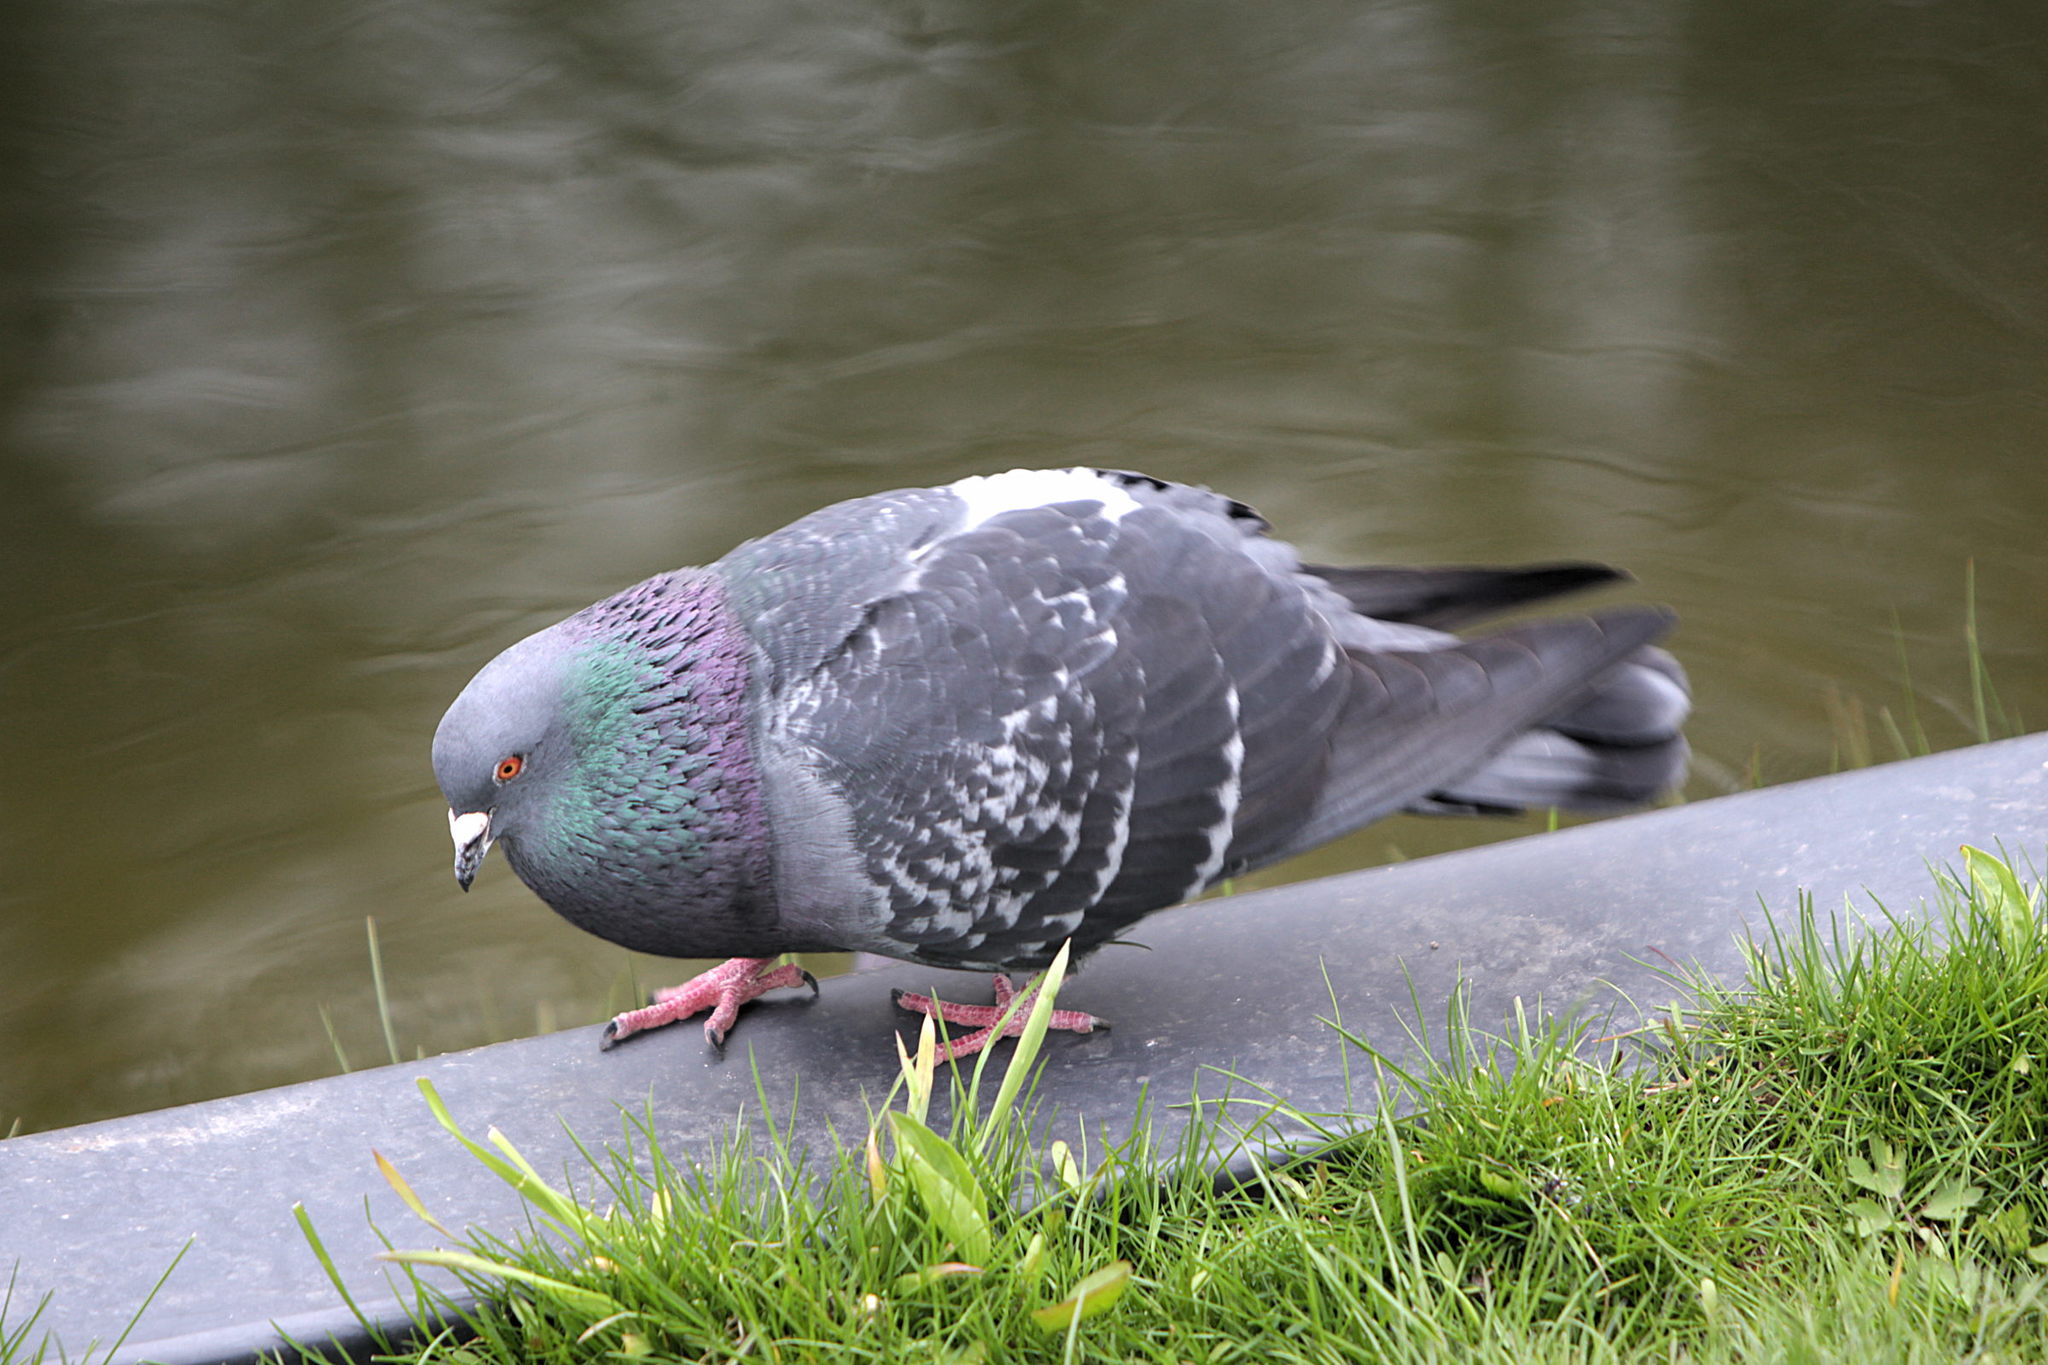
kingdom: Animalia
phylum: Chordata
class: Aves
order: Columbiformes
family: Columbidae
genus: Columba
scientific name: Columba livia
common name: Rock pigeon
